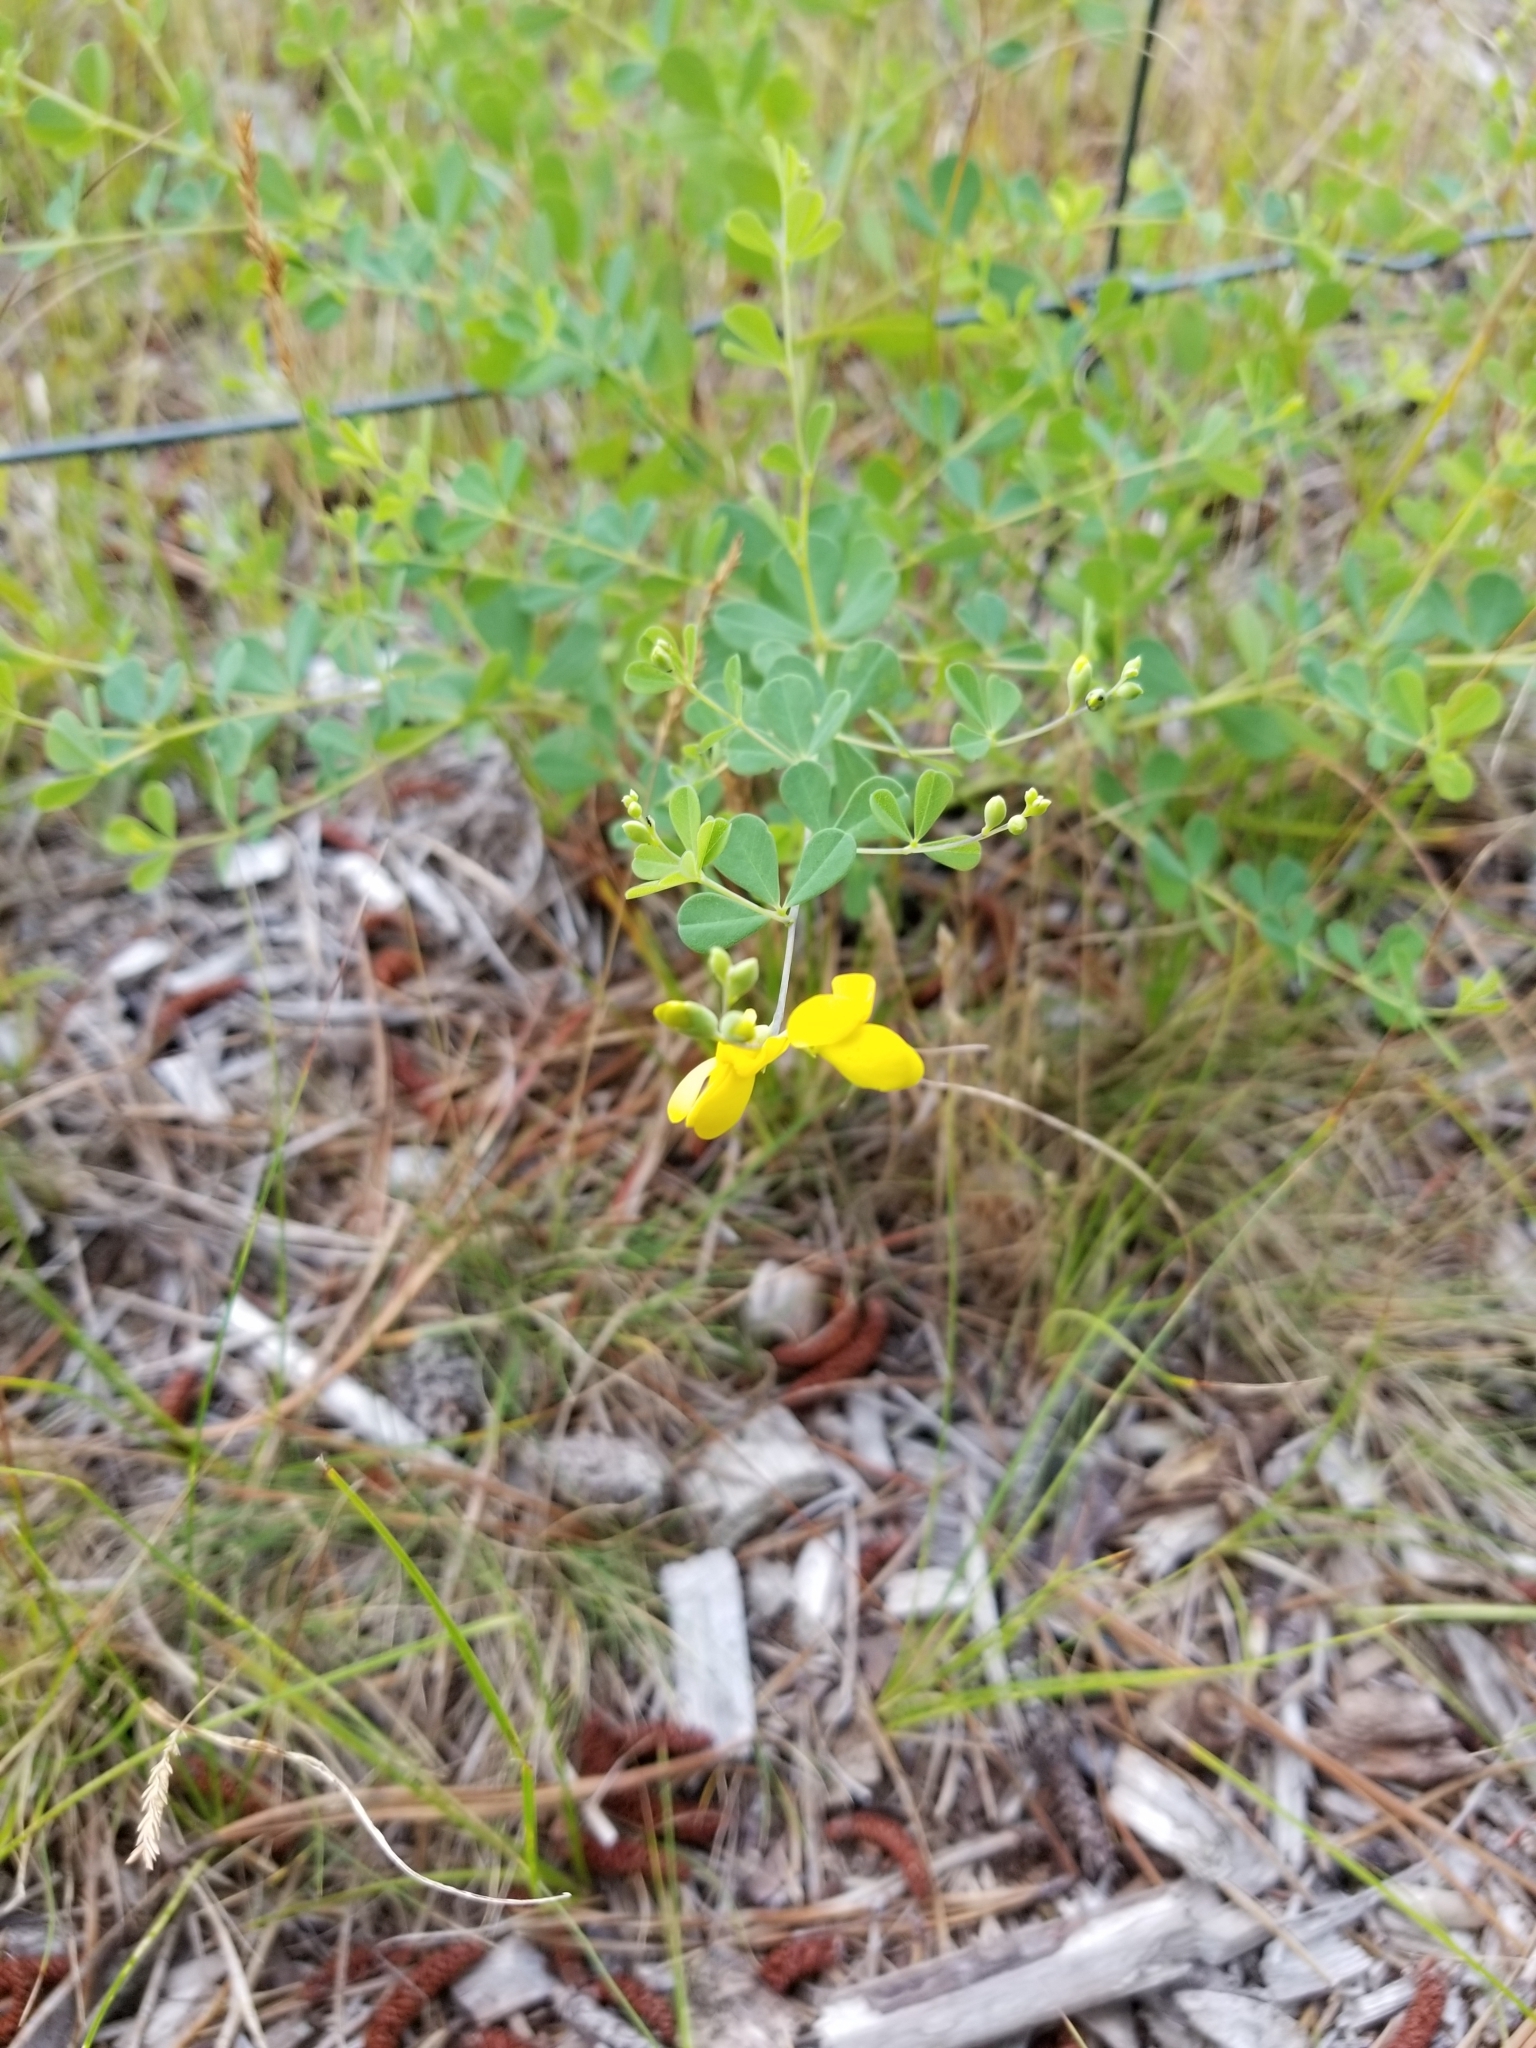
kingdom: Plantae
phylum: Tracheophyta
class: Magnoliopsida
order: Fabales
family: Fabaceae
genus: Baptisia
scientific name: Baptisia tinctoria
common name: Wild indigo
